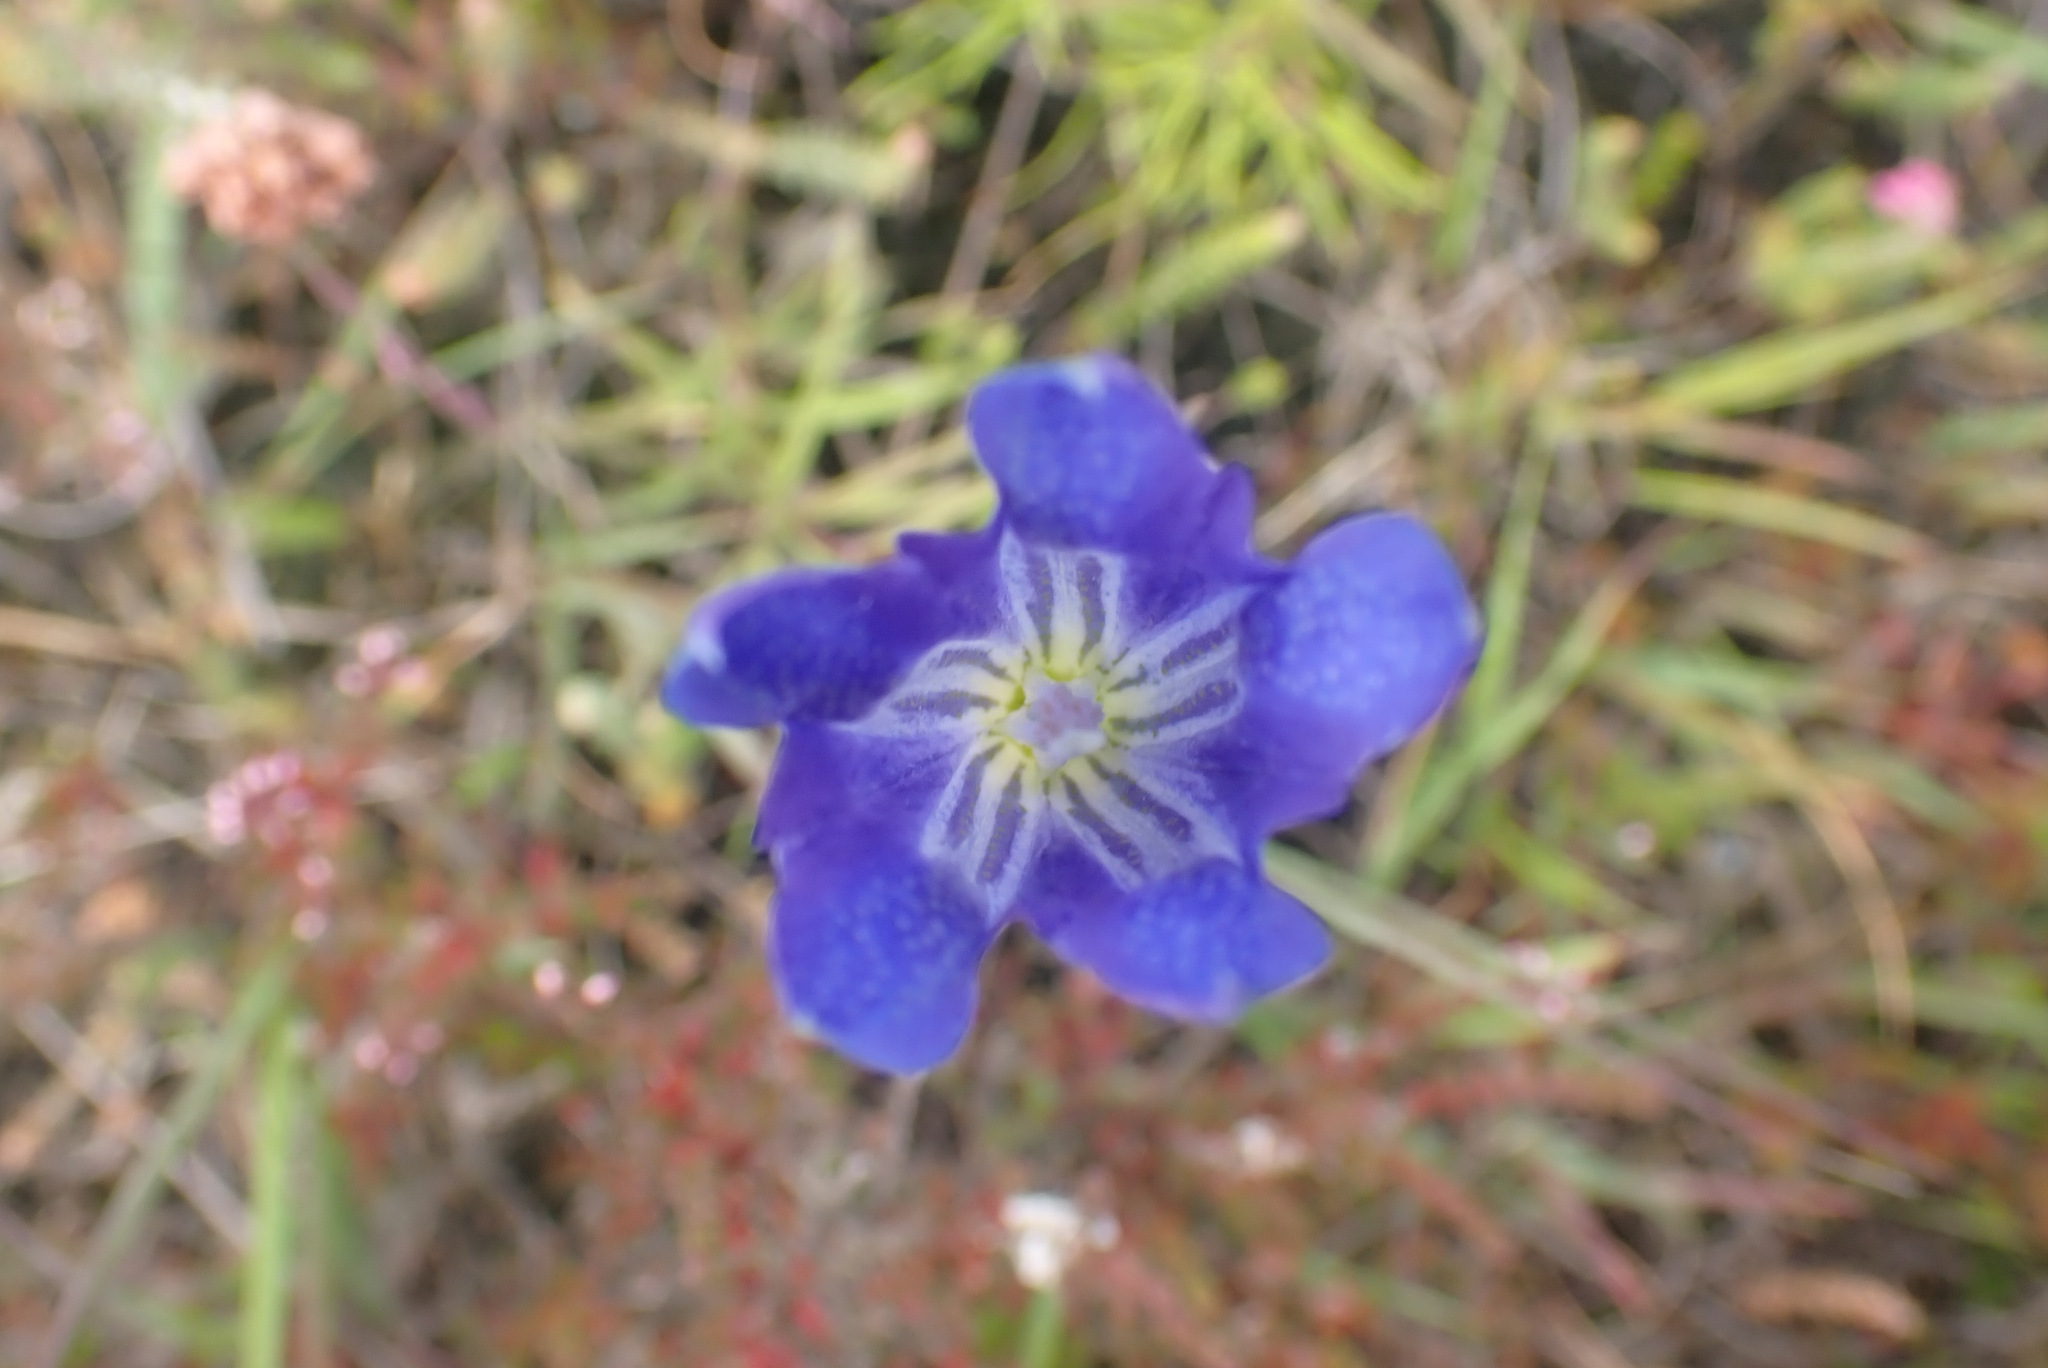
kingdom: Plantae
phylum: Tracheophyta
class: Magnoliopsida
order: Gentianales
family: Gentianaceae
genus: Gentiana
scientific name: Gentiana pneumonanthe
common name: Marsh gentian
